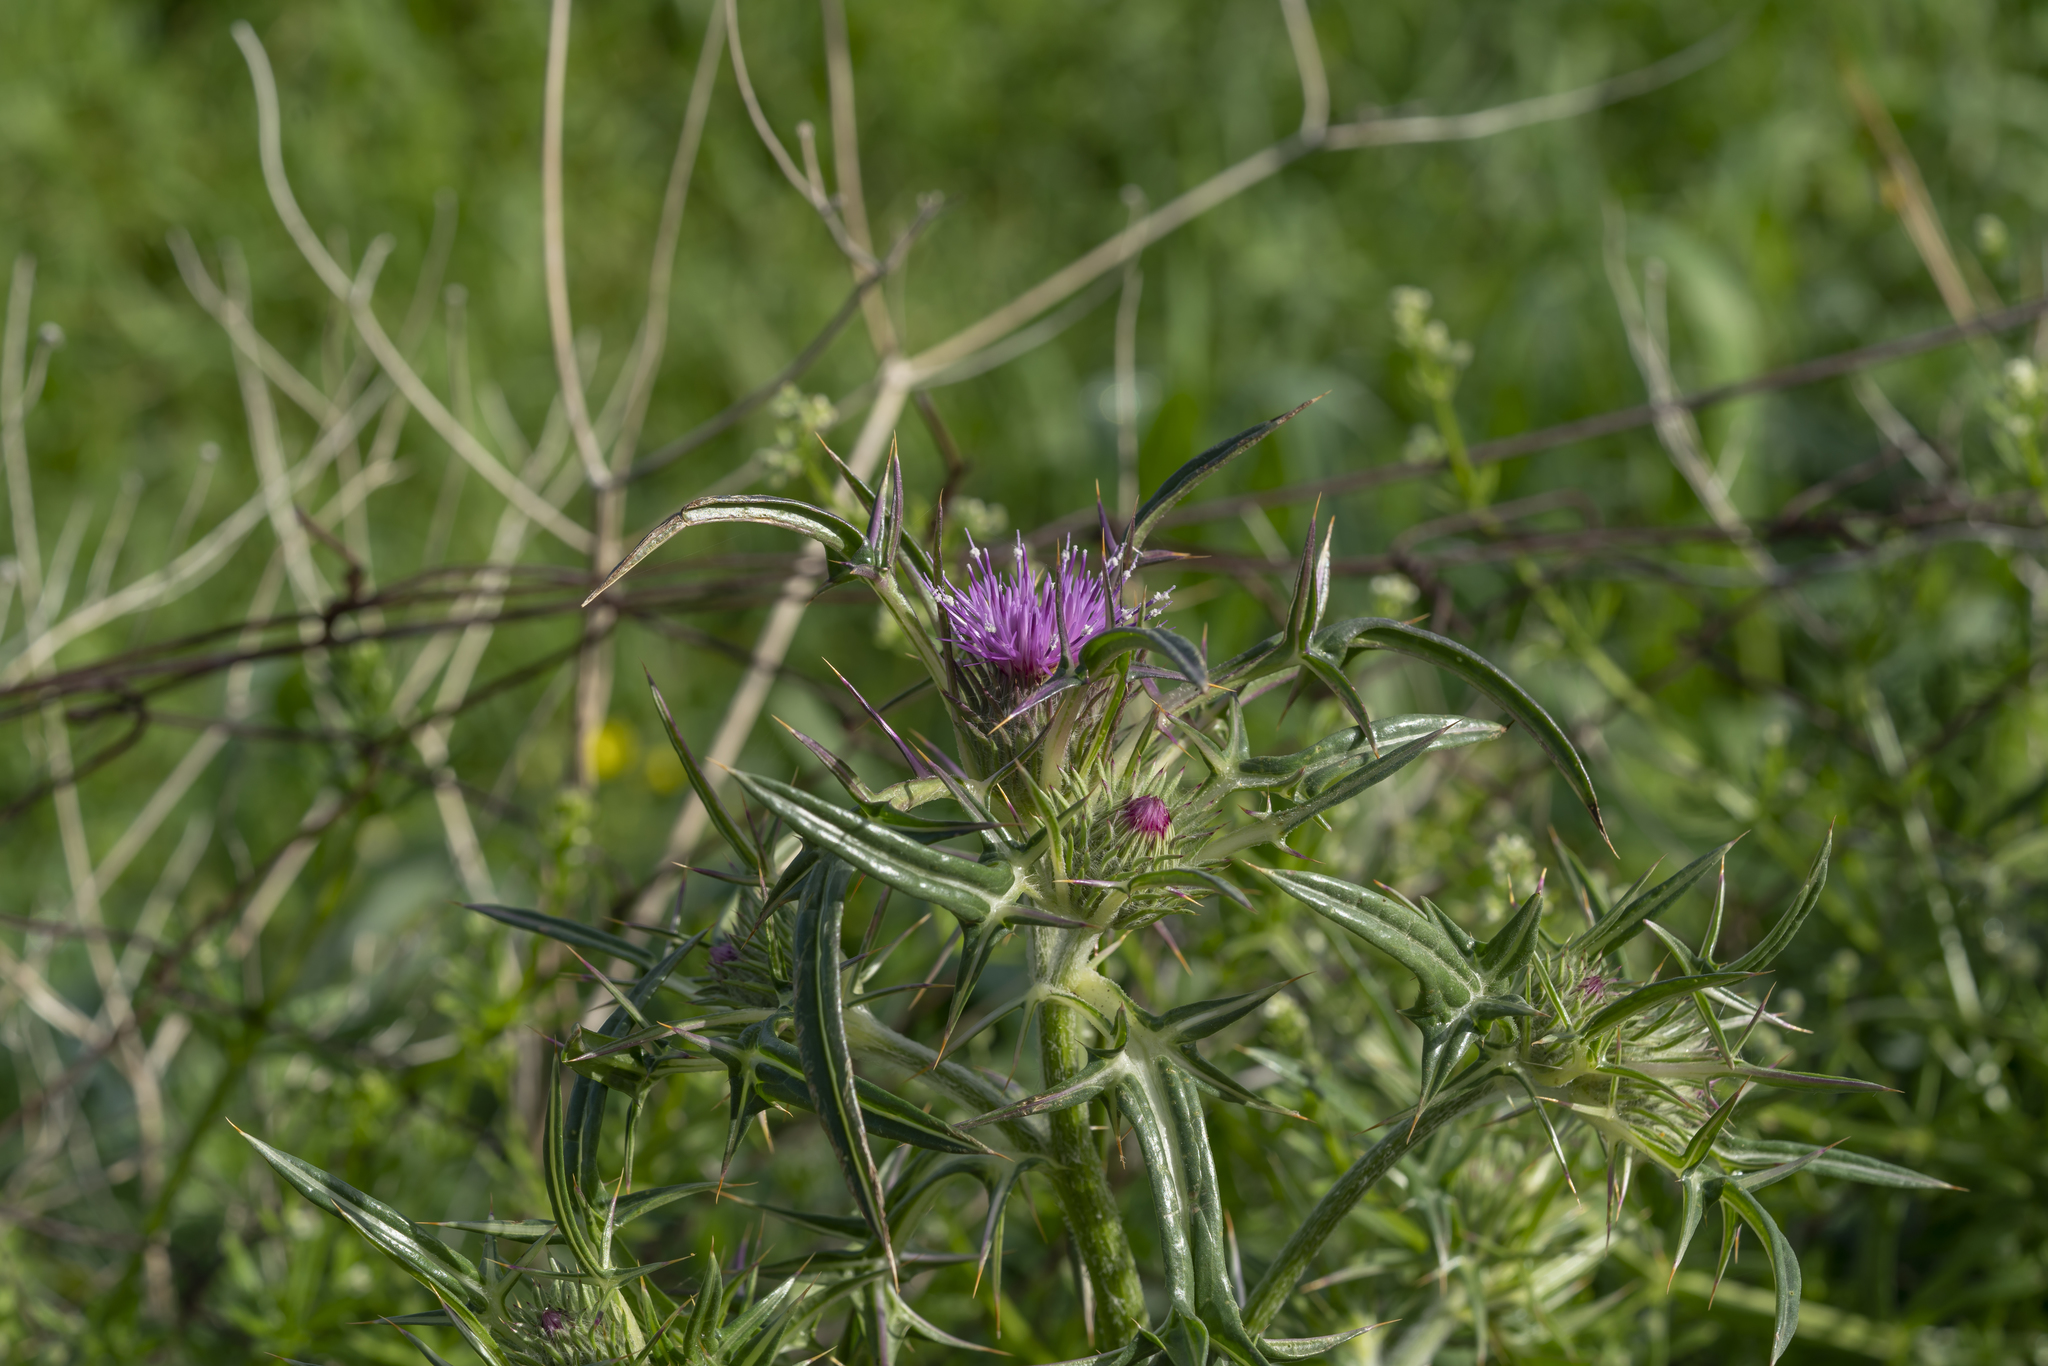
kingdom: Plantae
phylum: Tracheophyta
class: Magnoliopsida
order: Asterales
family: Asteraceae
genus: Notobasis
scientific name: Notobasis syriaca
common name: Syrian thistle
